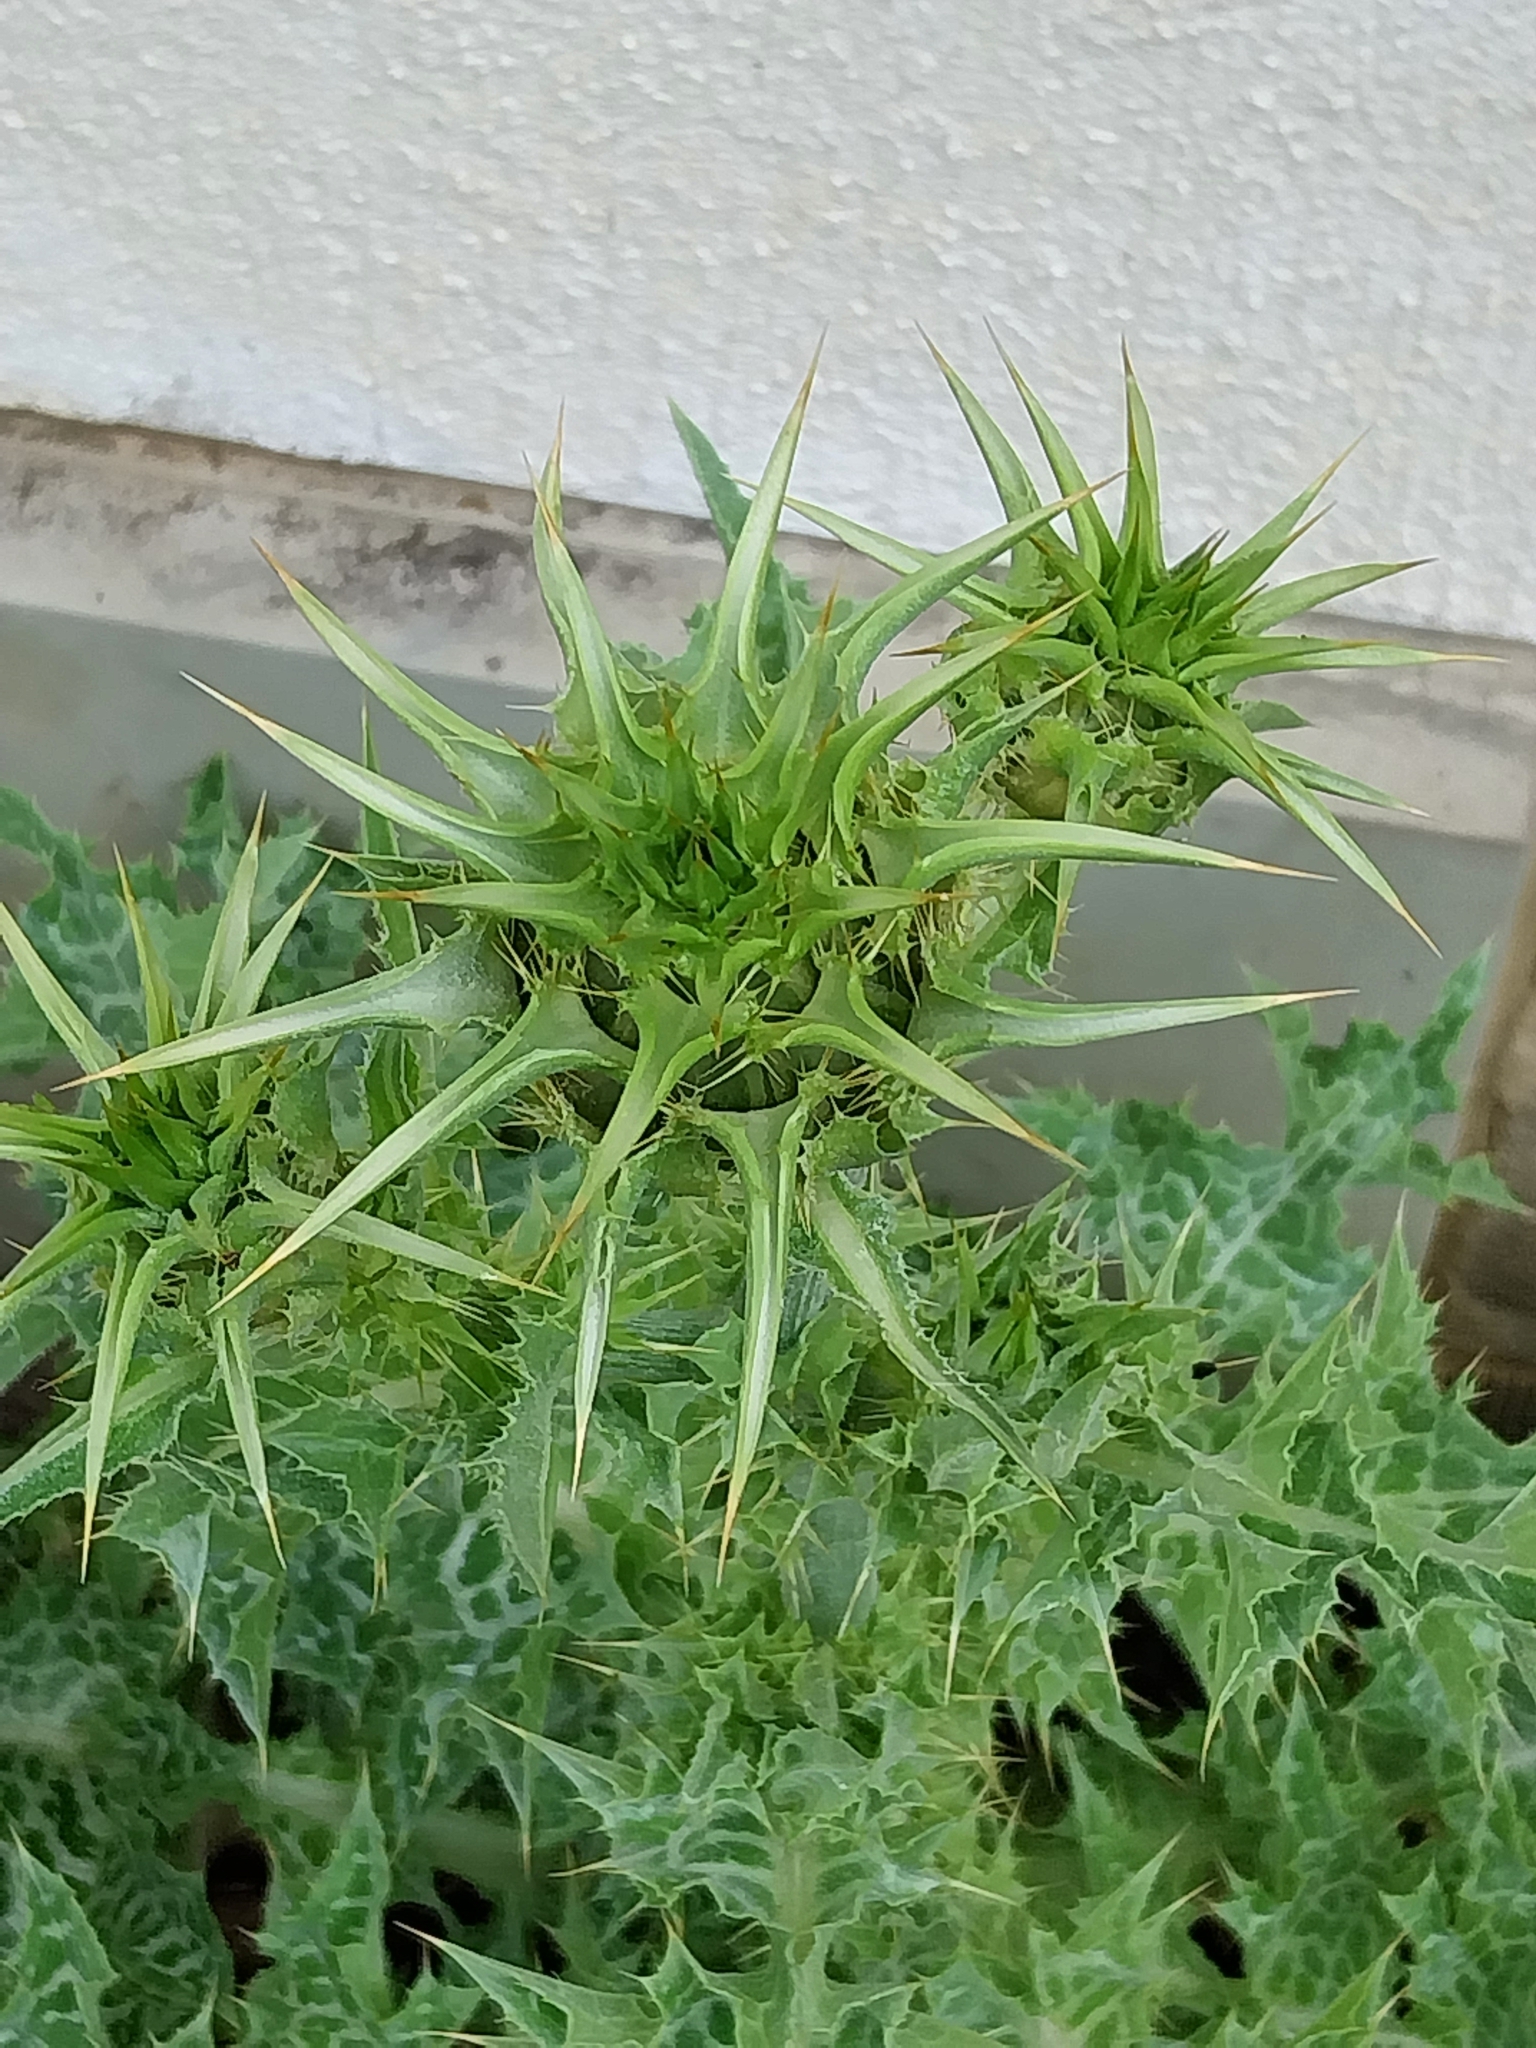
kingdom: Plantae
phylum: Tracheophyta
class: Magnoliopsida
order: Asterales
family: Asteraceae
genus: Silybum
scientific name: Silybum marianum
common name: Milk thistle
